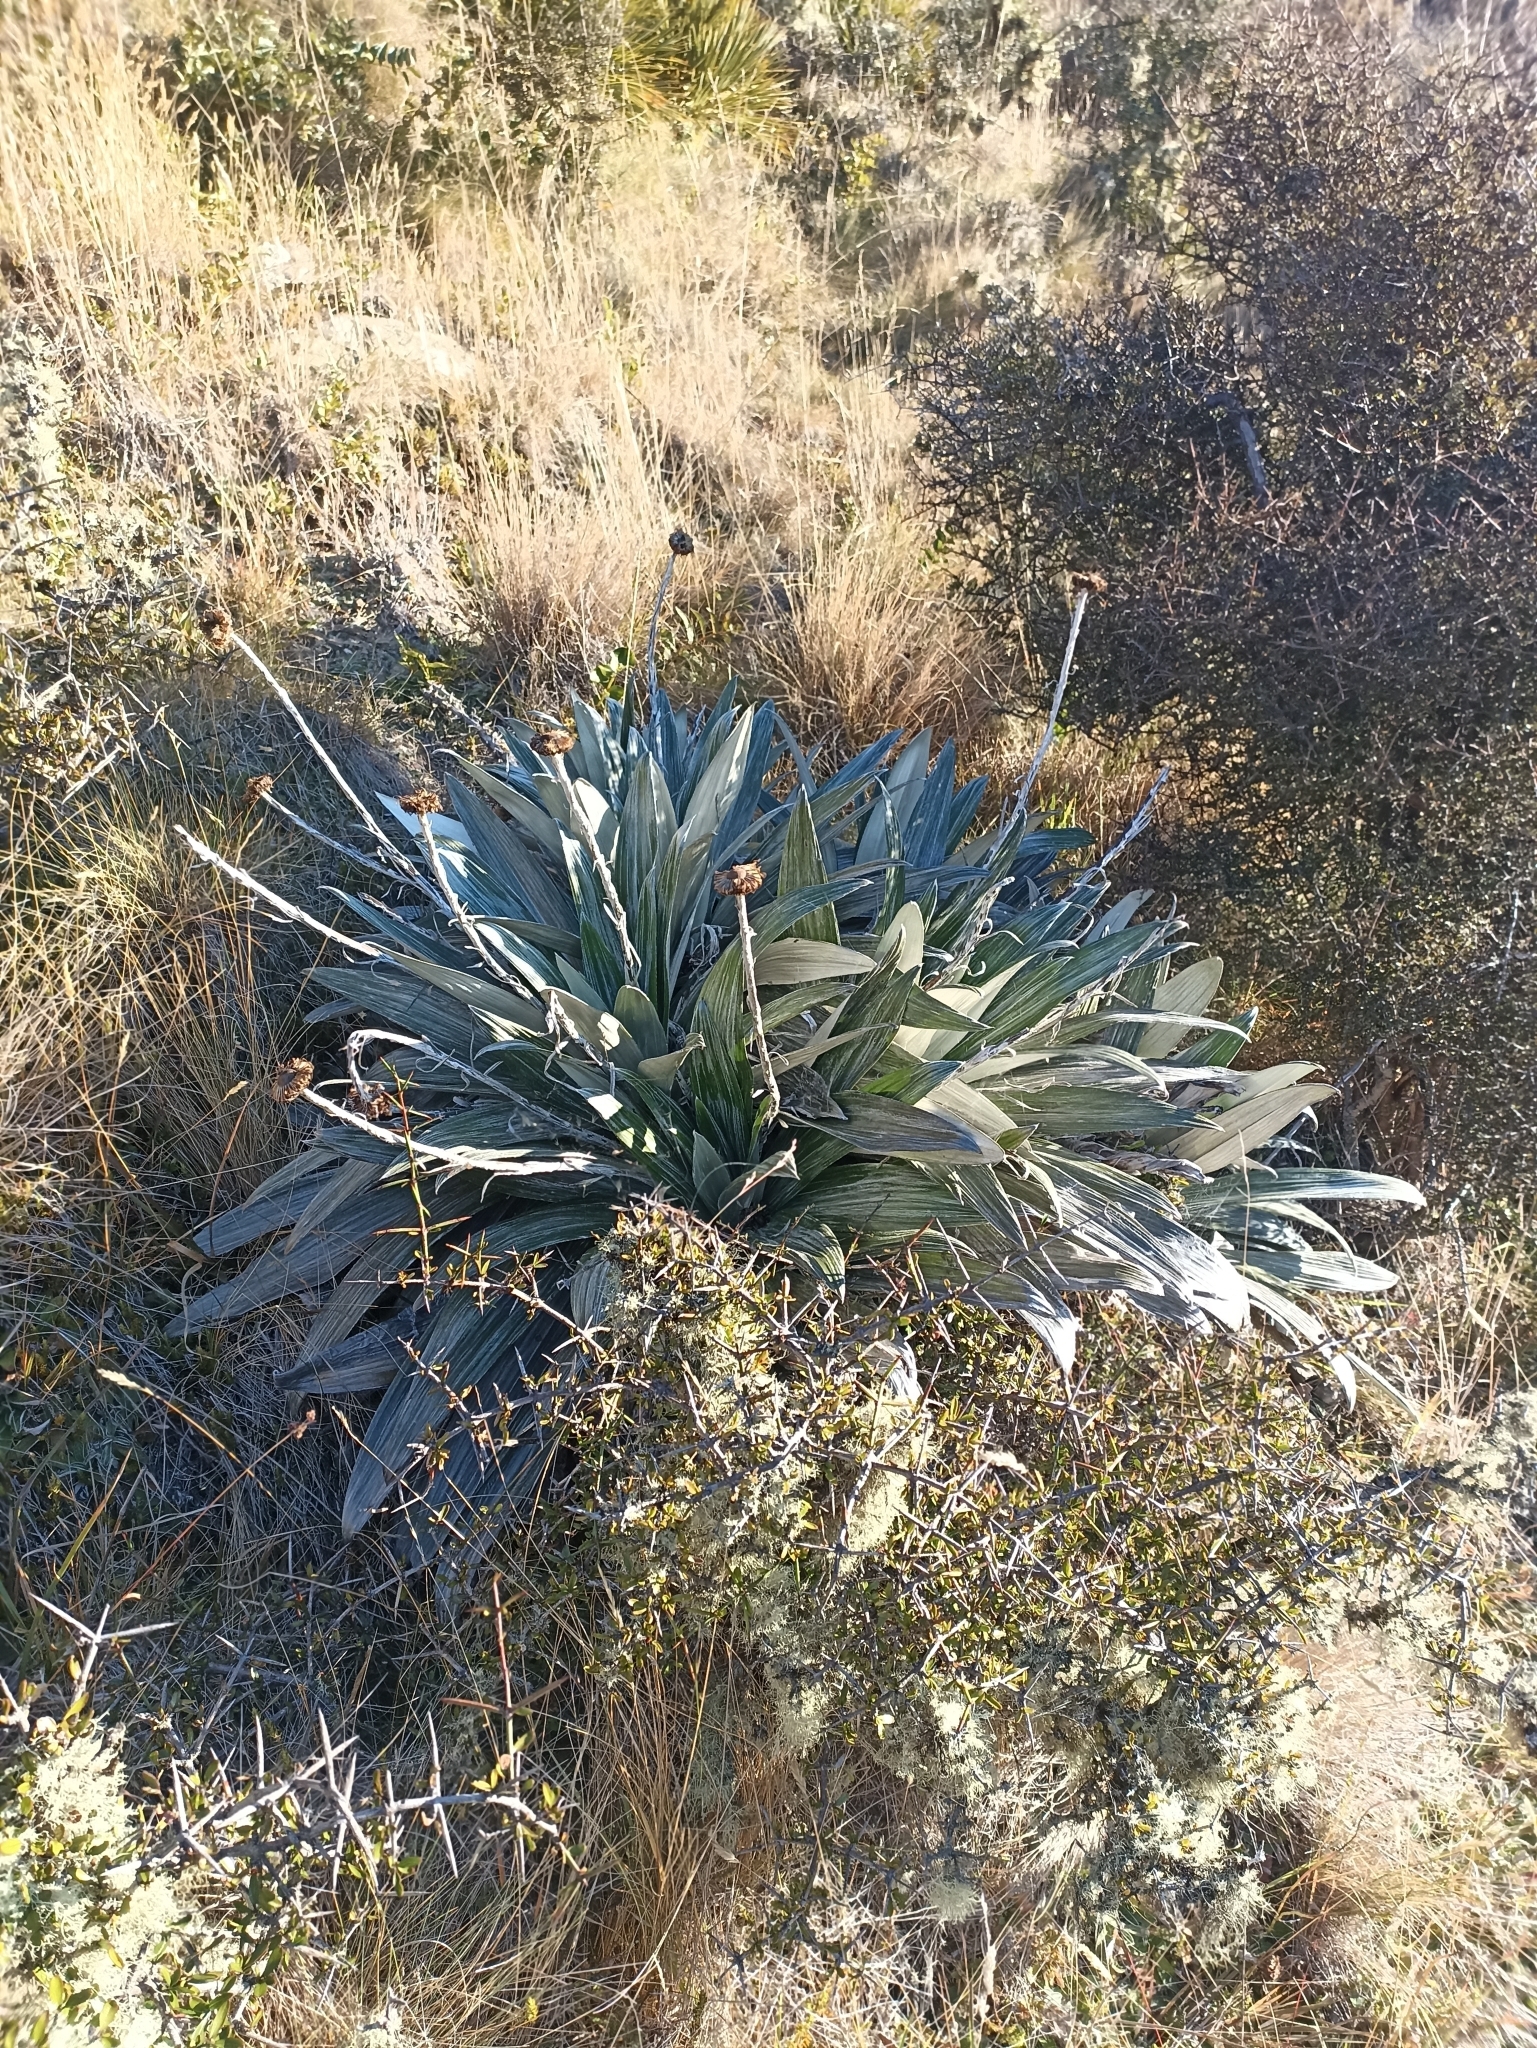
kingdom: Plantae
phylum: Tracheophyta
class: Magnoliopsida
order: Asterales
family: Asteraceae
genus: Celmisia
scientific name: Celmisia semicordata
